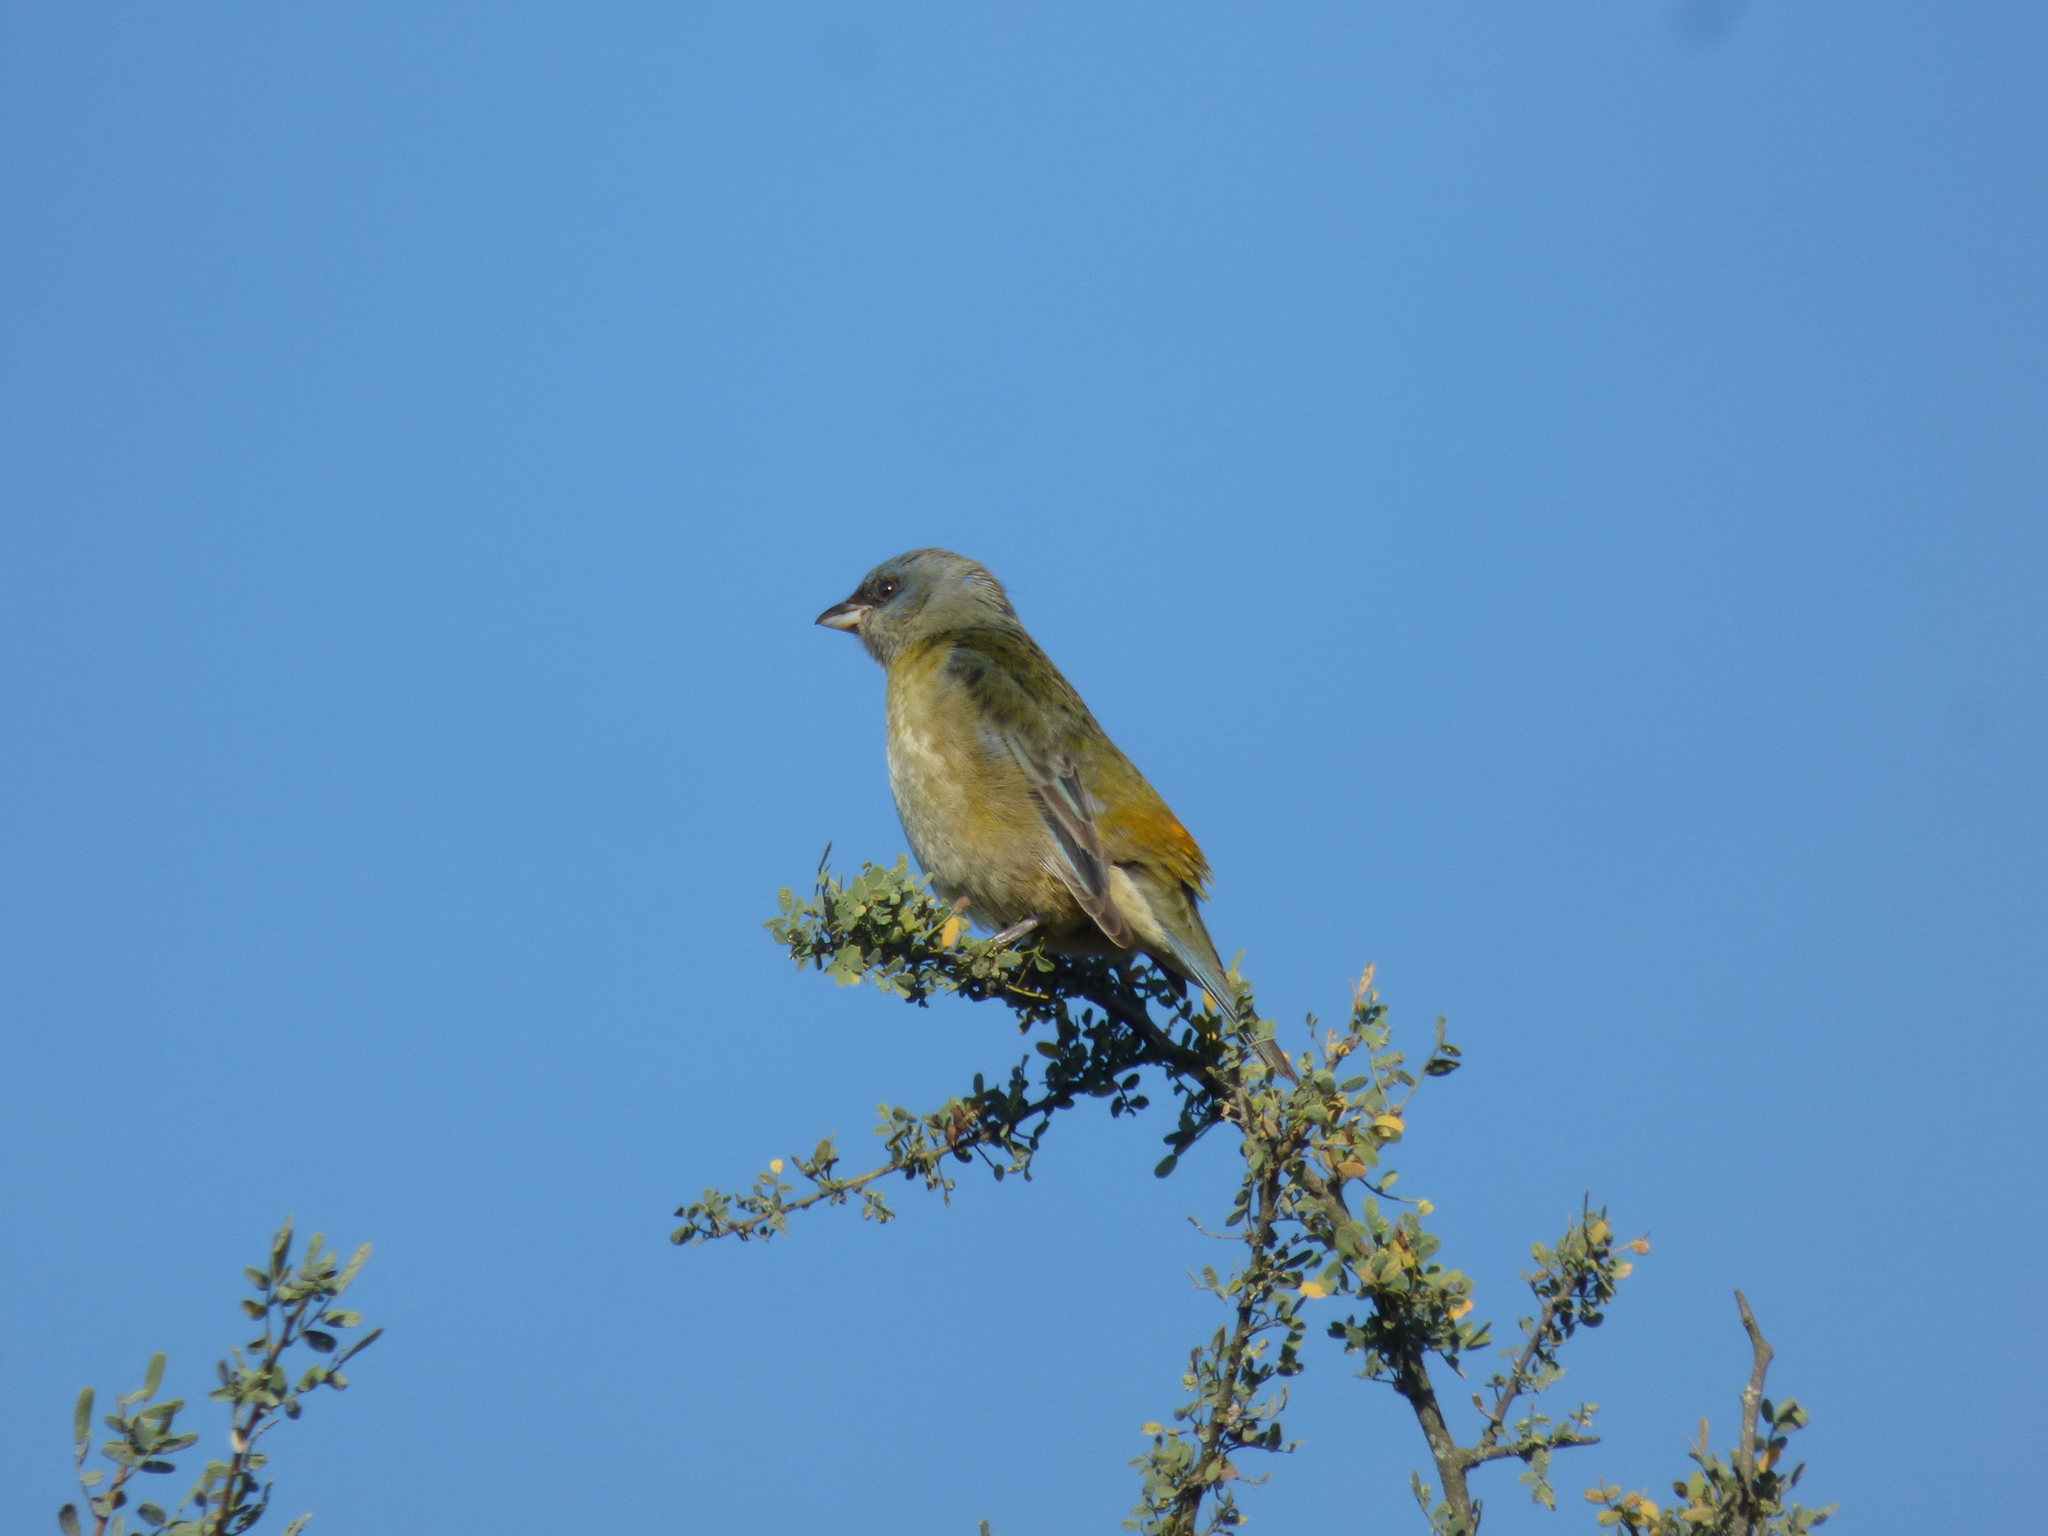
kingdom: Animalia
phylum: Chordata
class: Aves
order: Passeriformes
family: Thraupidae
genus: Rauenia
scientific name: Rauenia bonariensis
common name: Blue-and-yellow tanager
